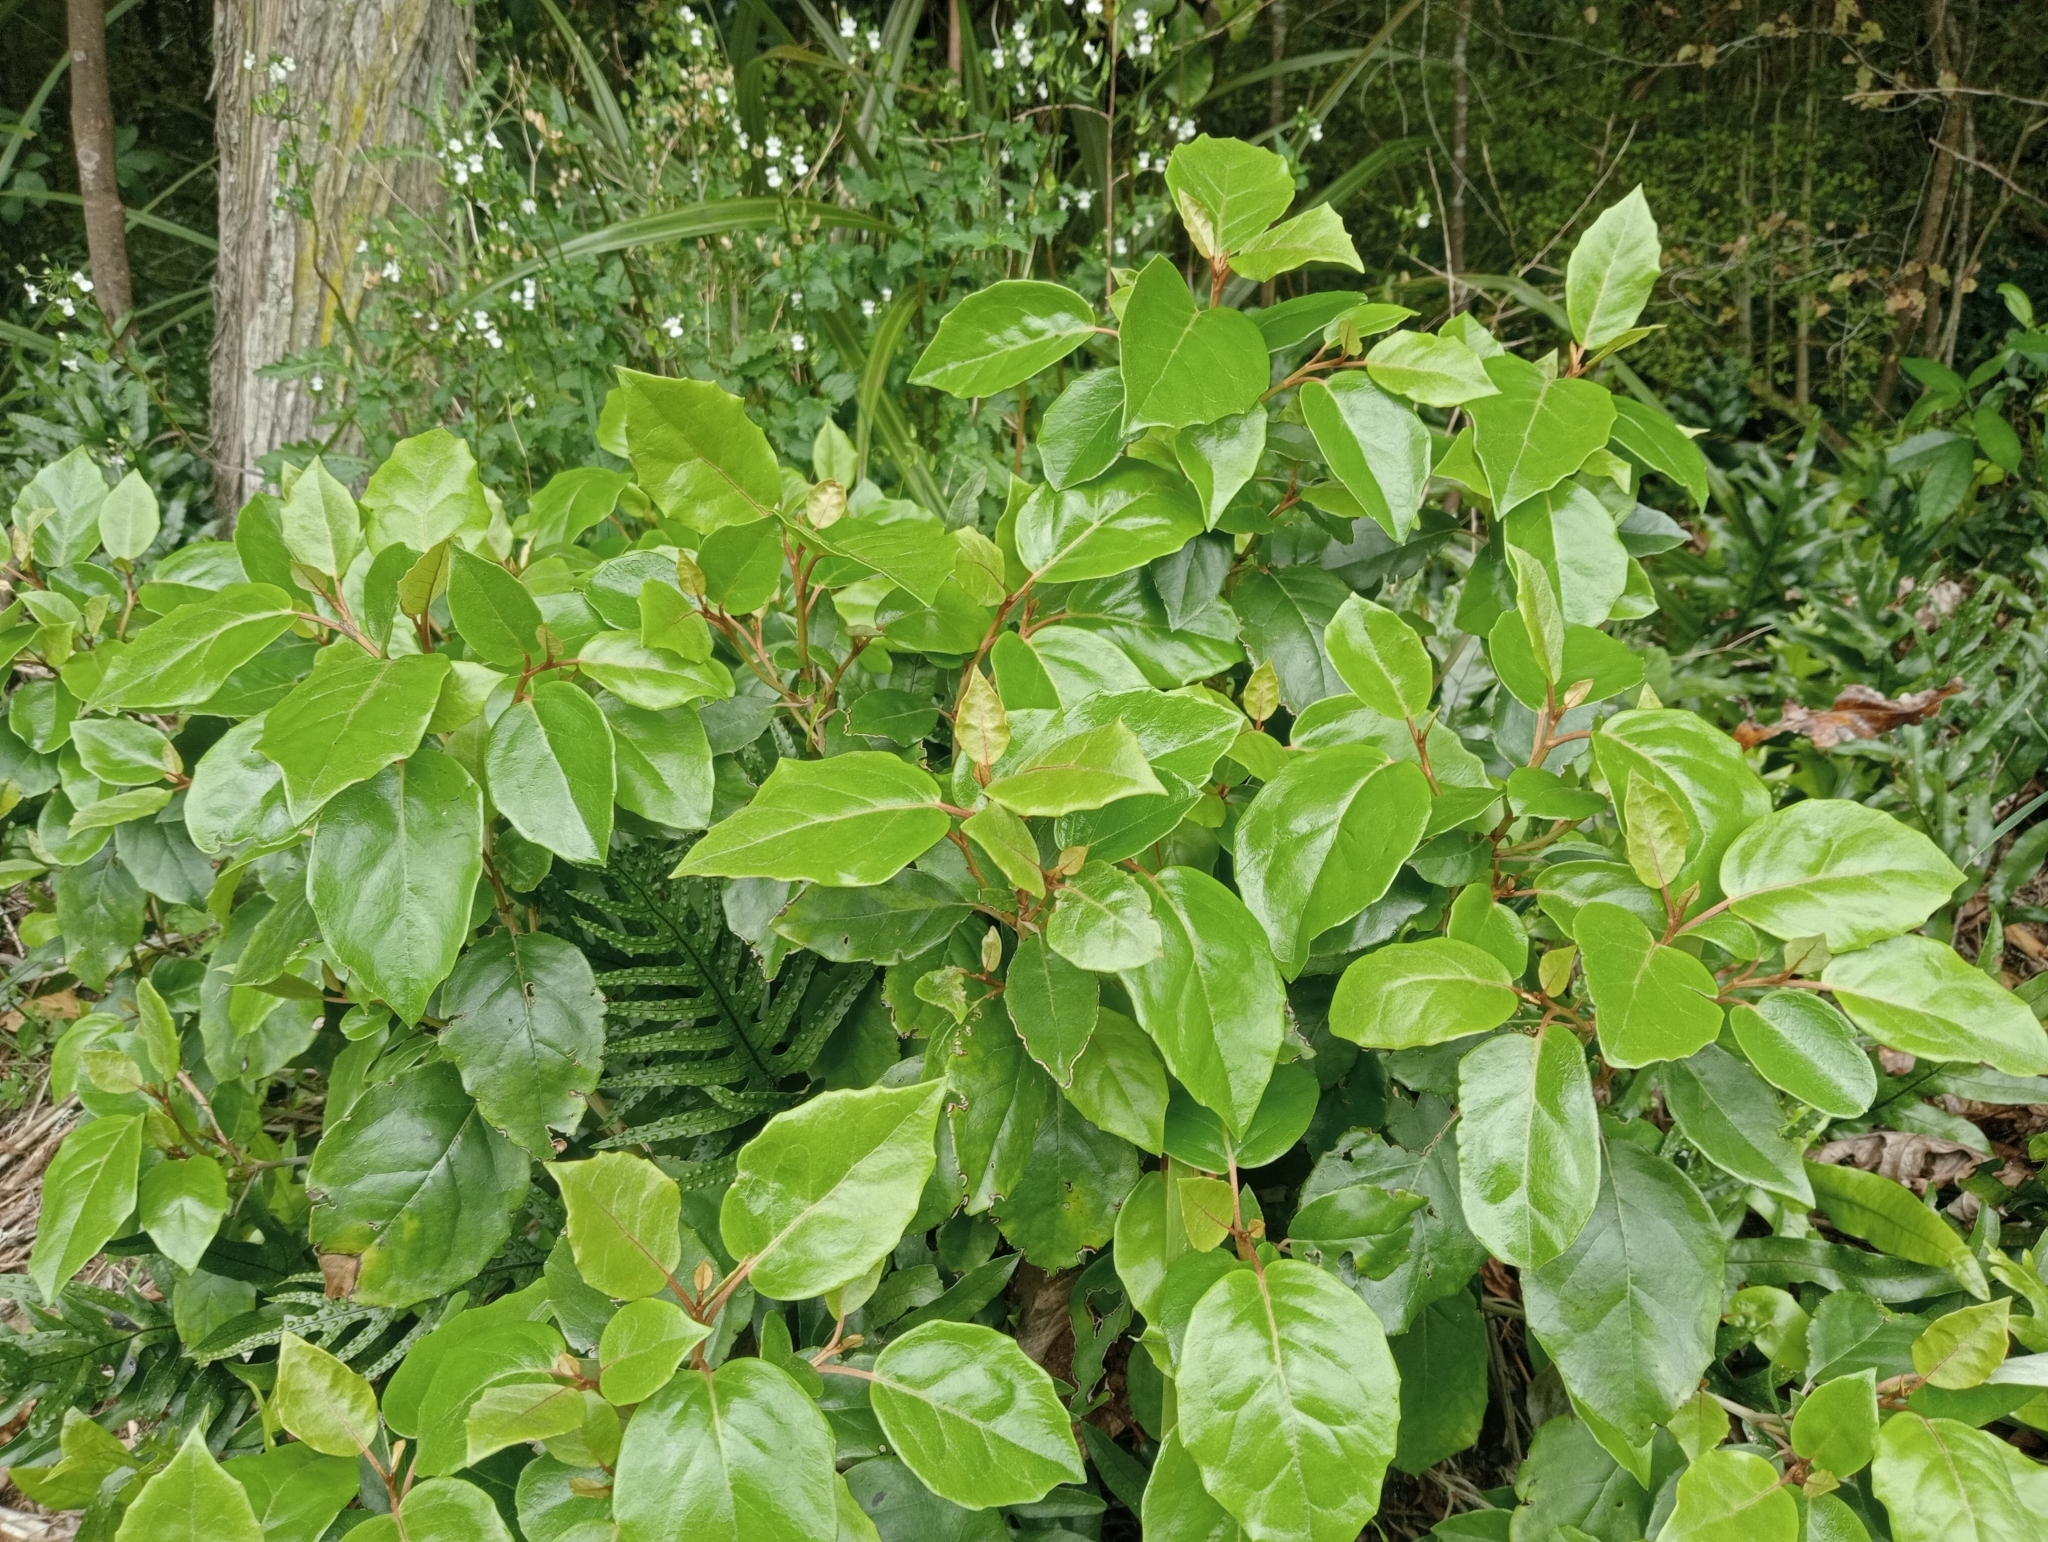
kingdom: Plantae
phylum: Tracheophyta
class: Magnoliopsida
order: Asterales
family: Asteraceae
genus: Olearia
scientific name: Olearia arborescens
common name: Glossy tree daisy
